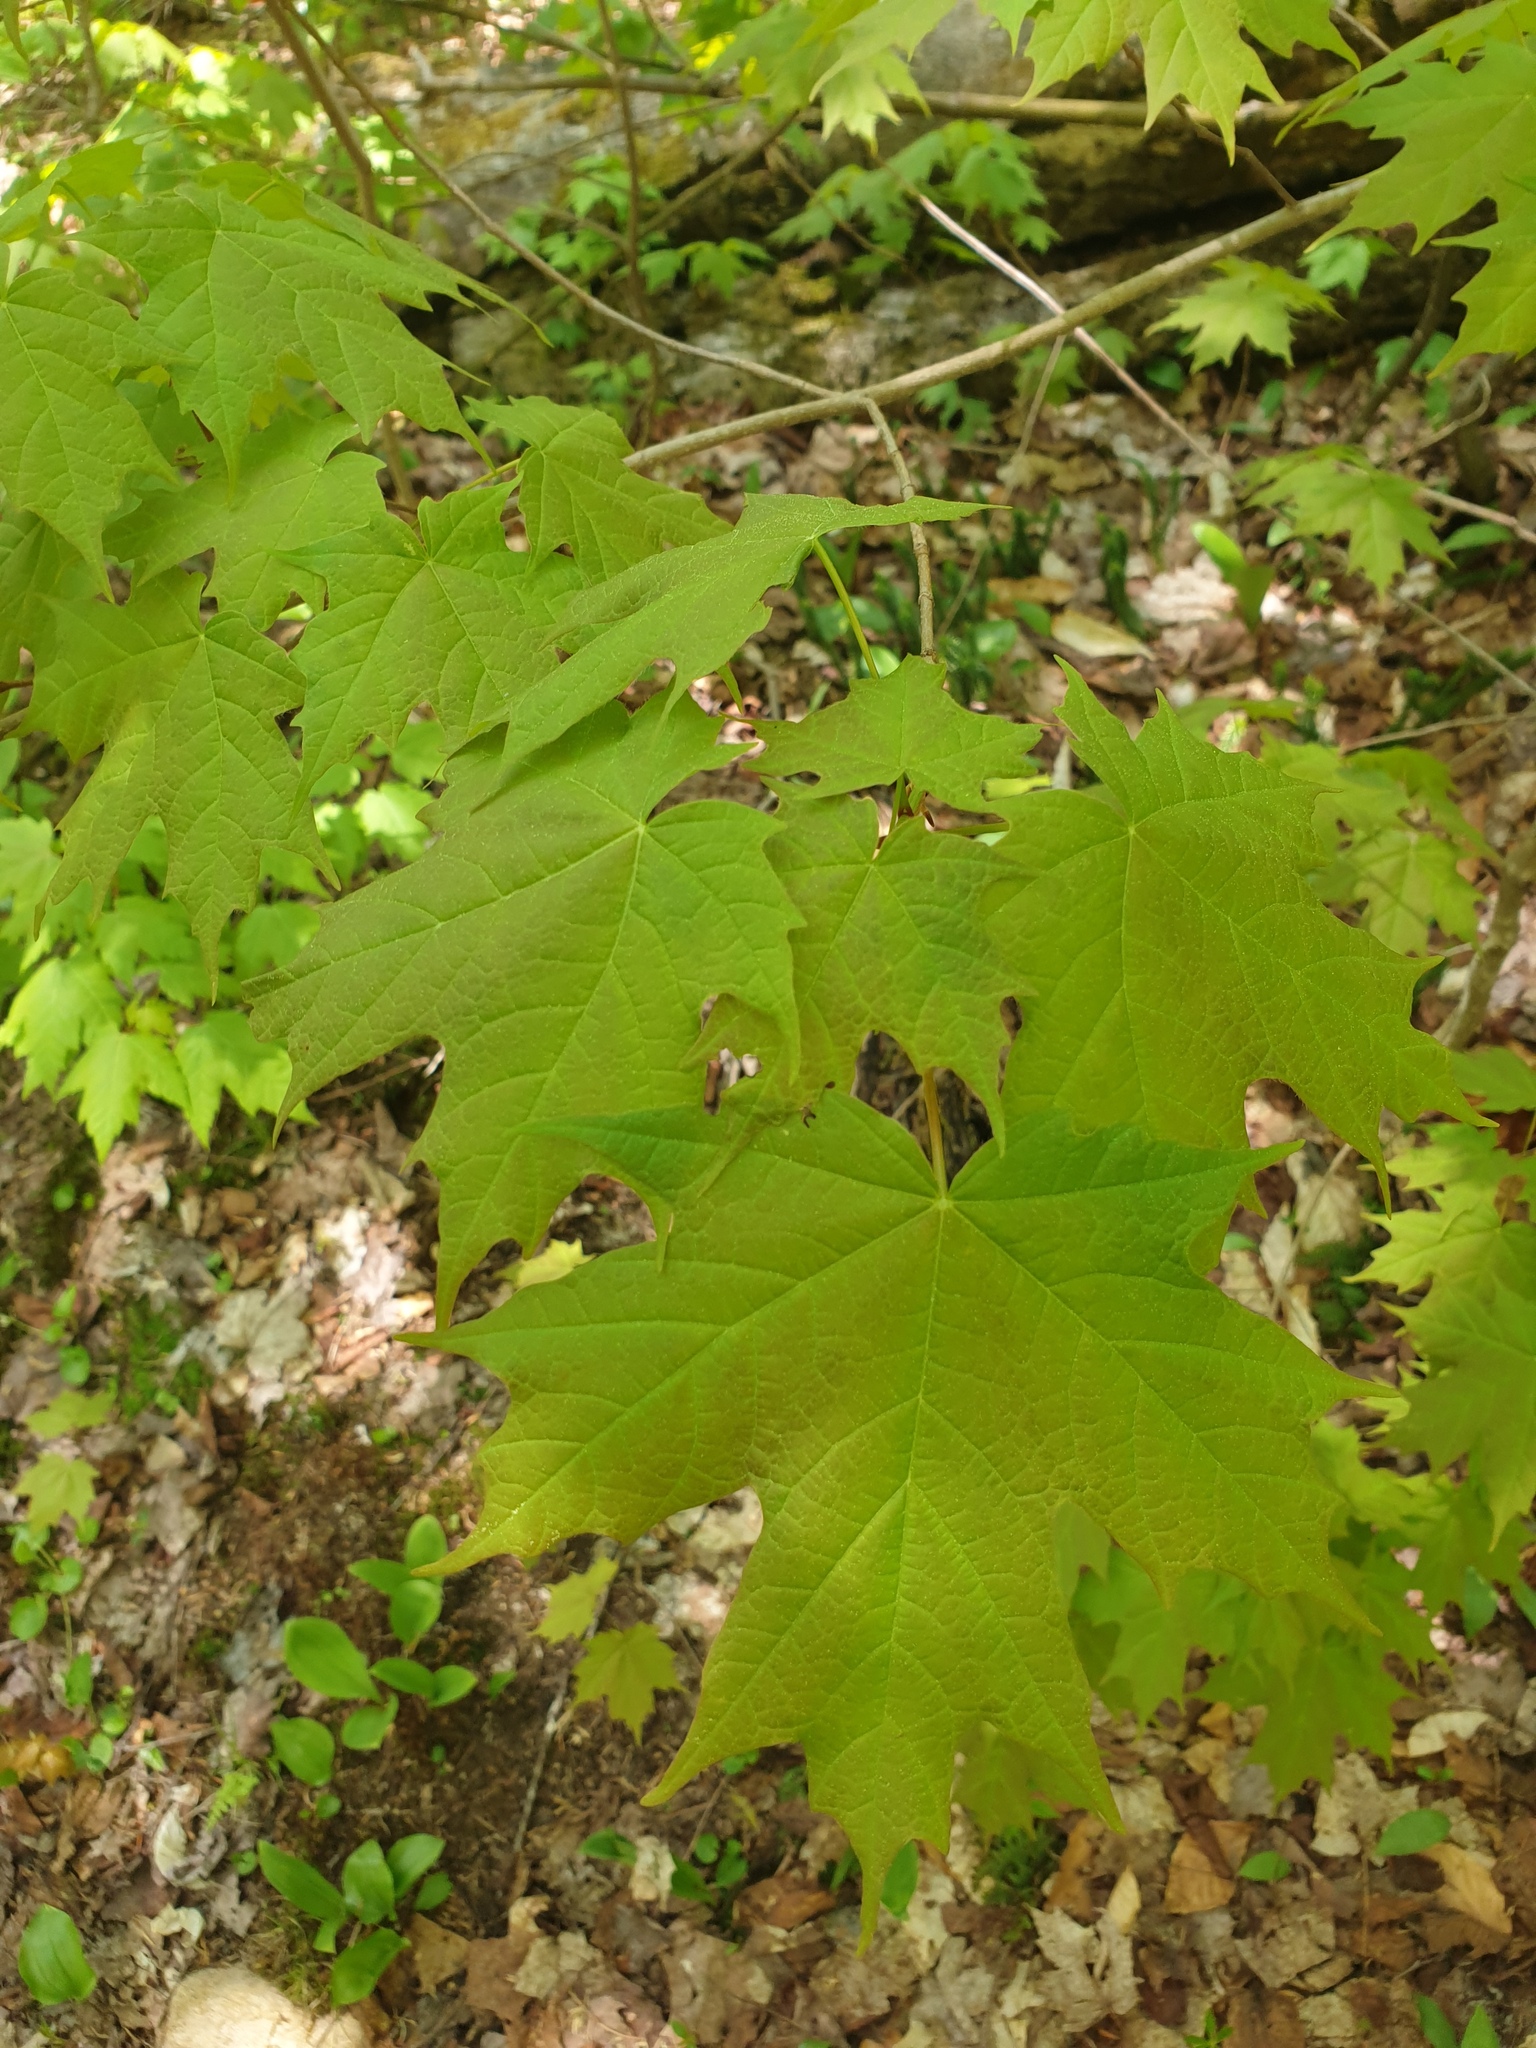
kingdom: Plantae
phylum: Tracheophyta
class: Magnoliopsida
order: Sapindales
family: Sapindaceae
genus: Acer
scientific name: Acer saccharum
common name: Sugar maple
